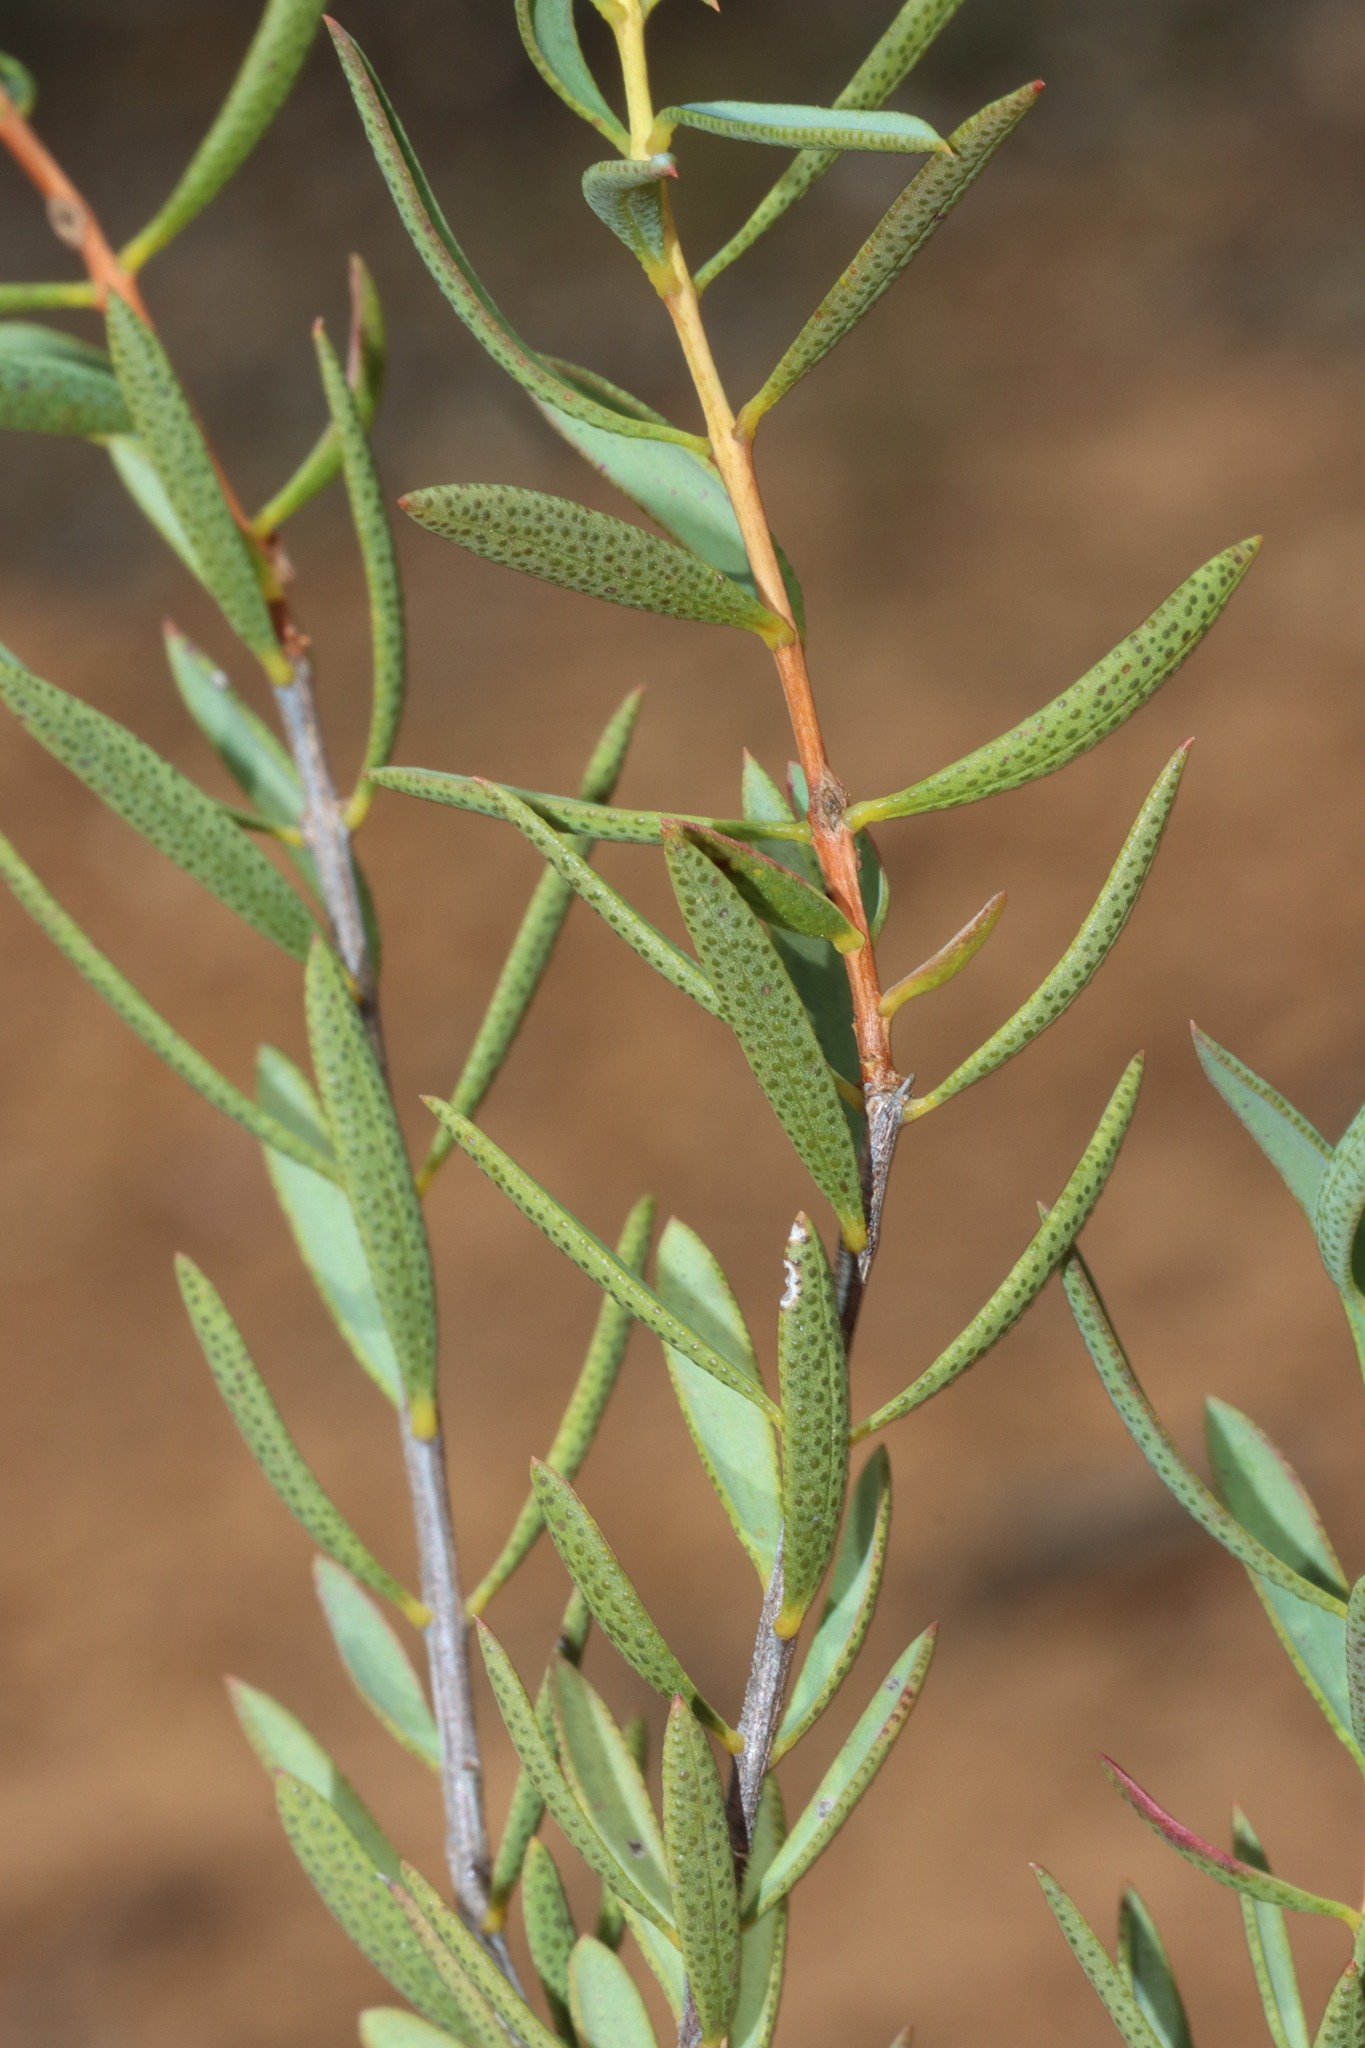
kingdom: Plantae
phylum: Tracheophyta
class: Magnoliopsida
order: Myrtales
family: Myrtaceae
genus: Melaleuca
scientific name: Melaleuca radula
